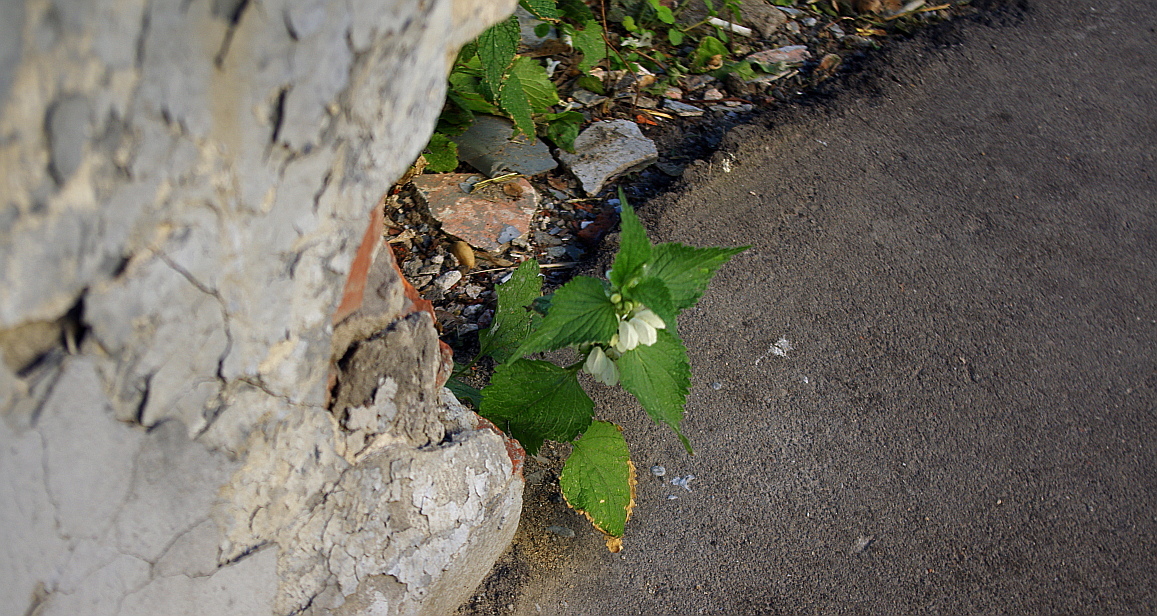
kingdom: Plantae
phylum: Tracheophyta
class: Magnoliopsida
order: Lamiales
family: Lamiaceae
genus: Lamium
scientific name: Lamium album
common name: White dead-nettle
